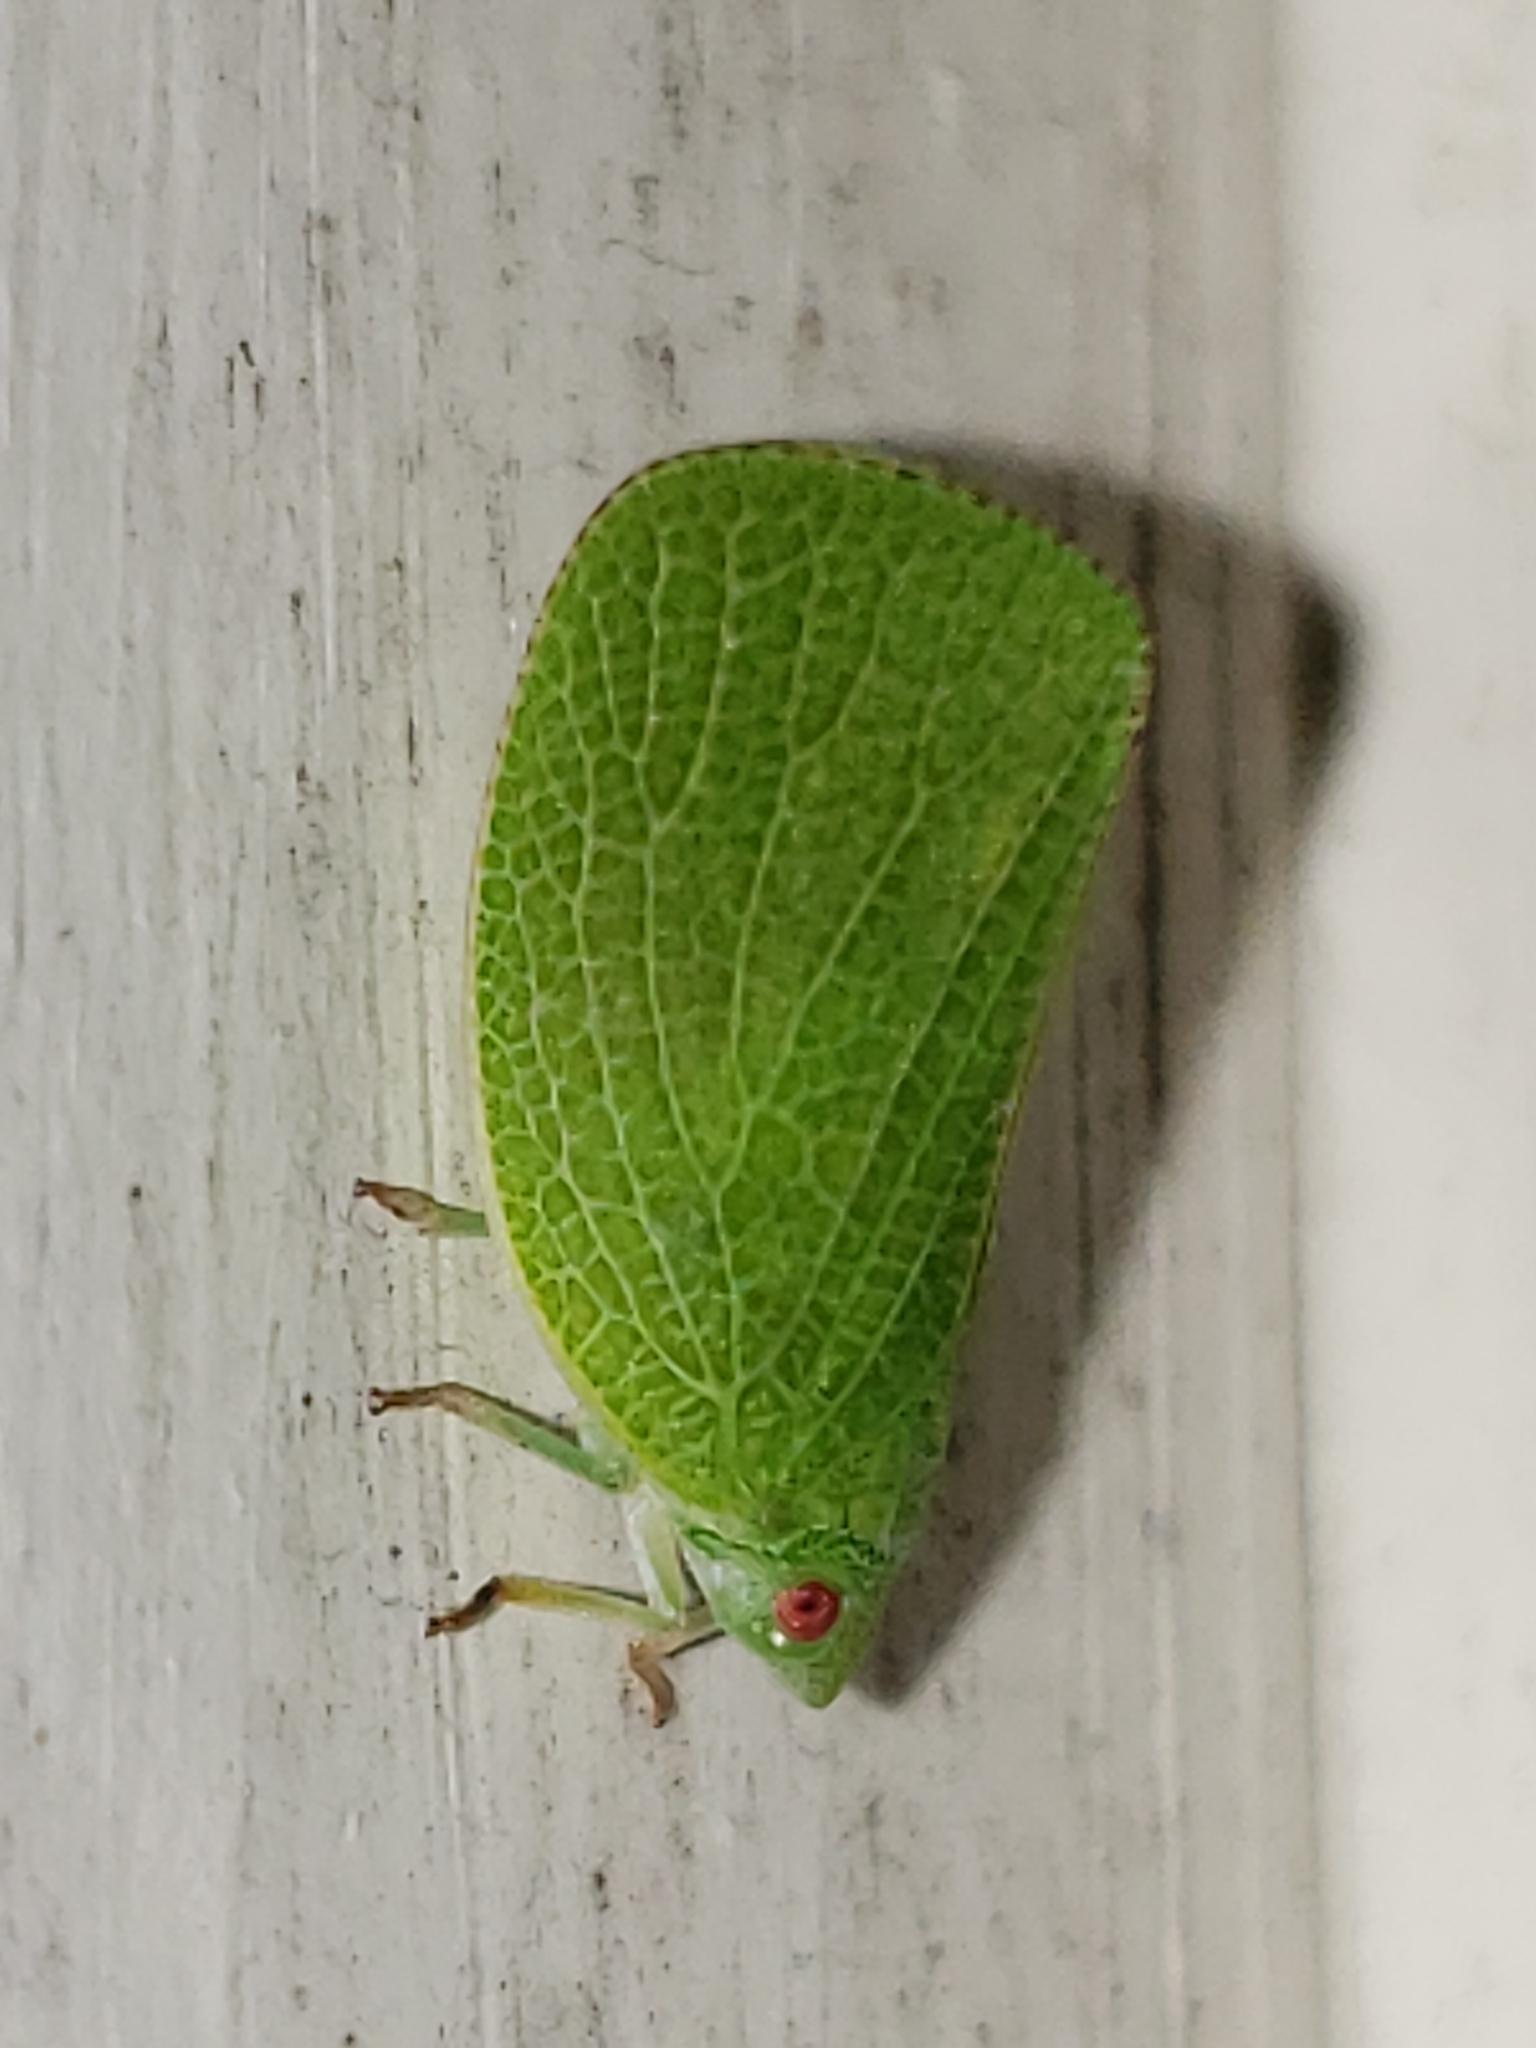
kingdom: Animalia
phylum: Arthropoda
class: Insecta
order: Hemiptera
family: Acanaloniidae
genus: Acanalonia
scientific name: Acanalonia conica
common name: Green cone-headed planthopper
